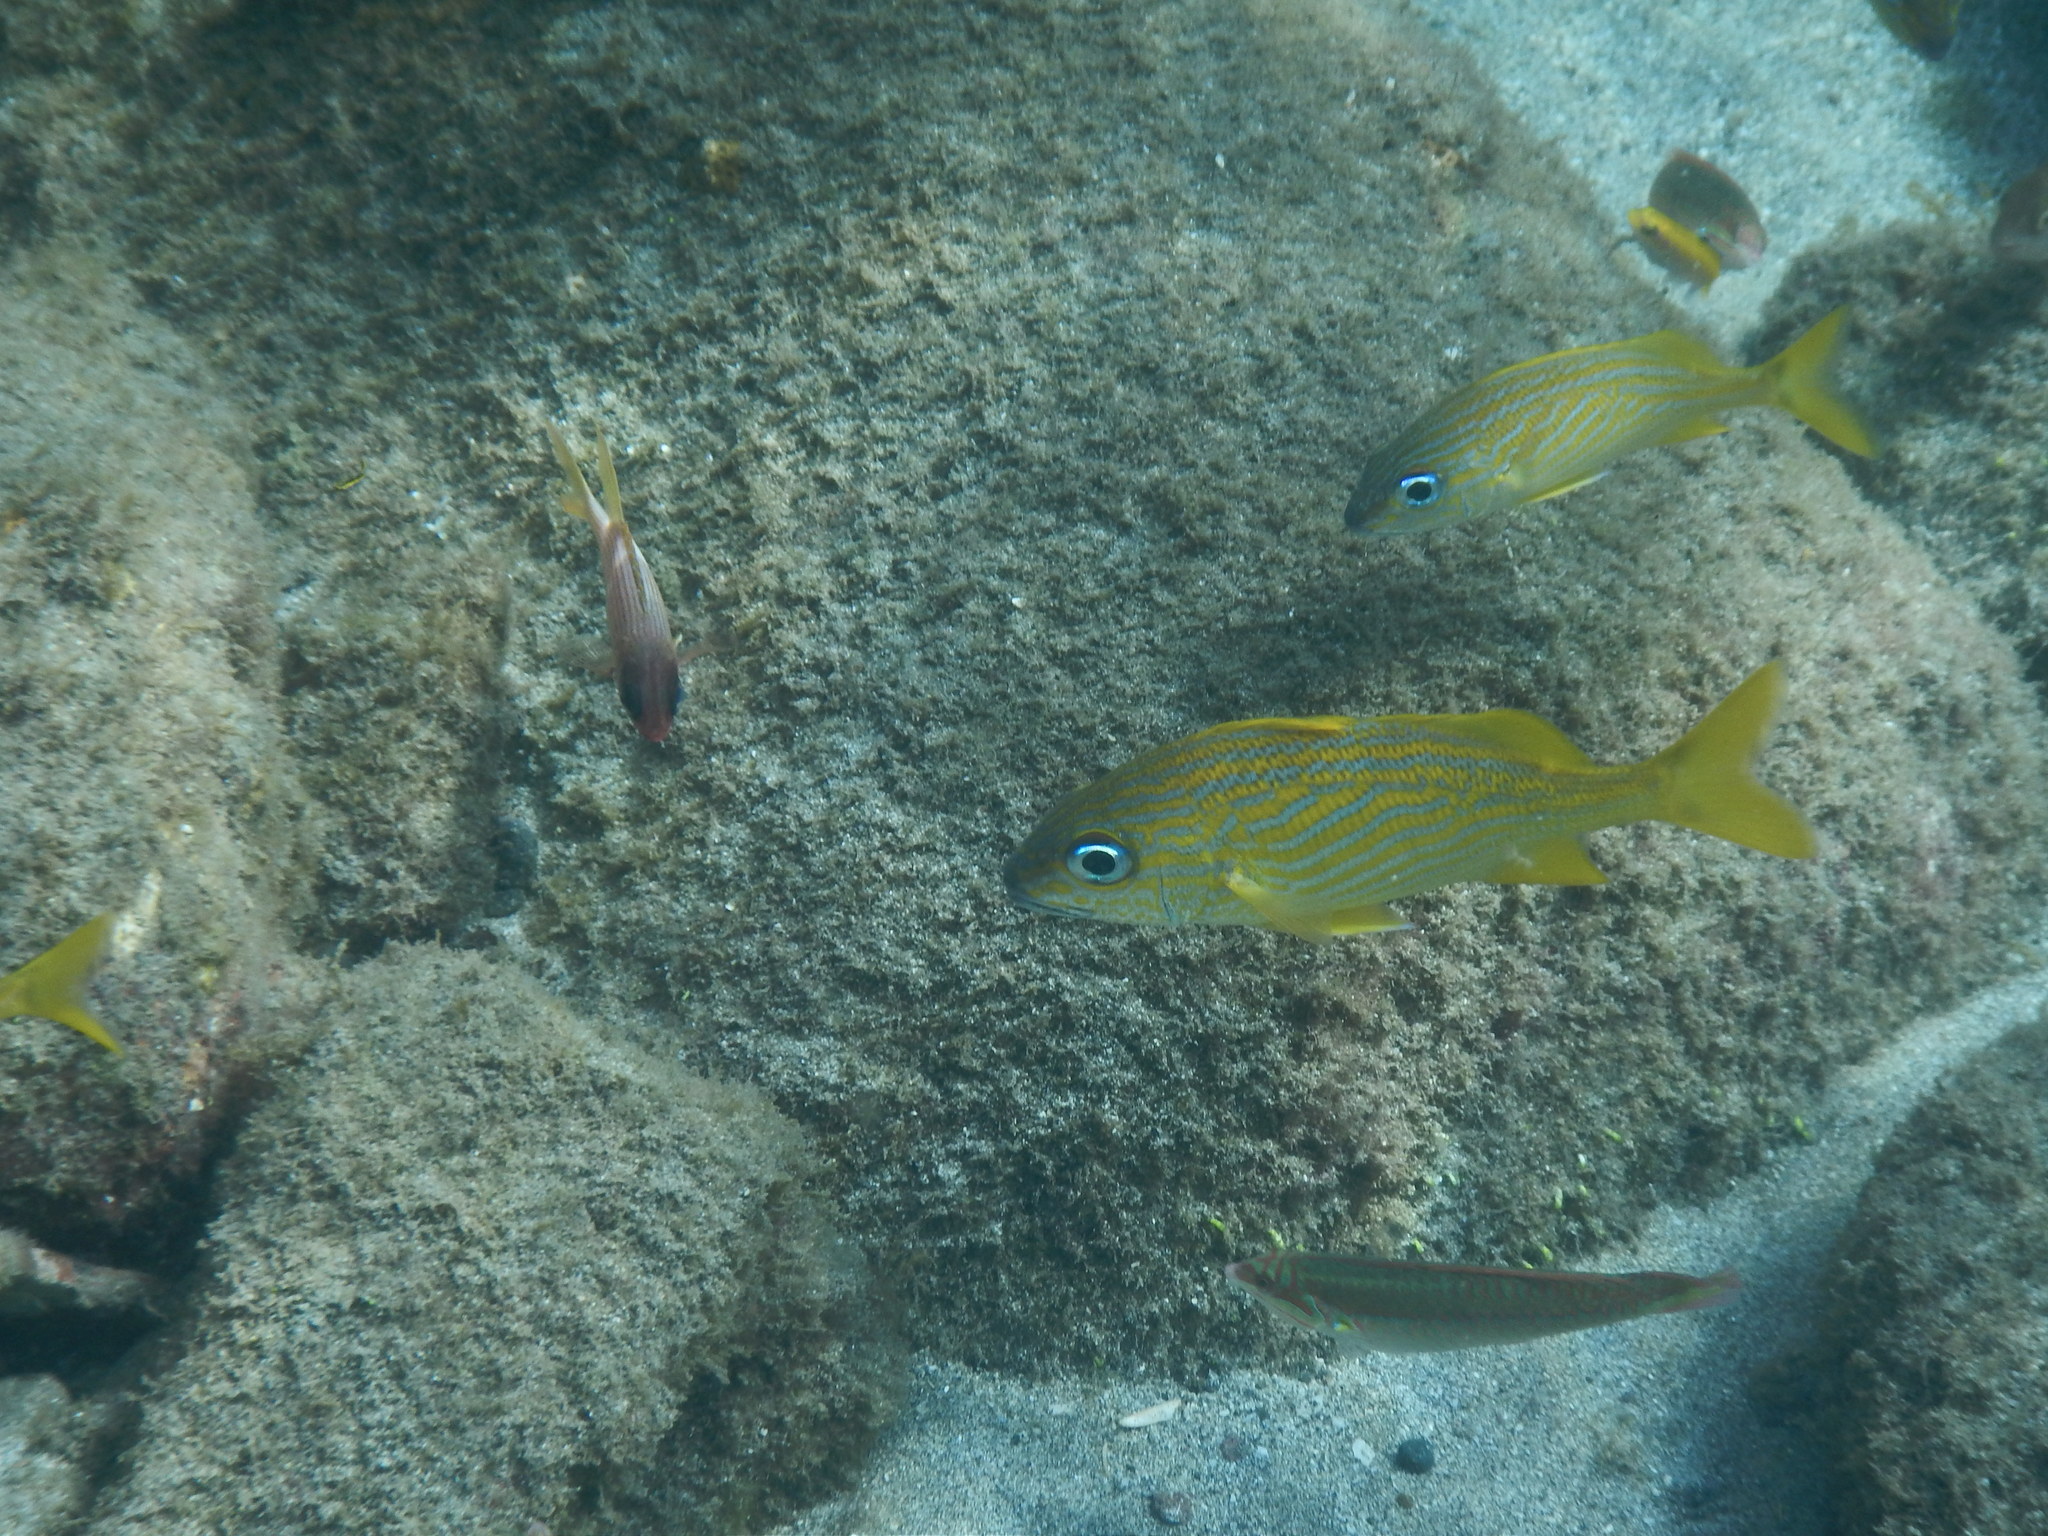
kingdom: Animalia
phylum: Chordata
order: Perciformes
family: Haemulidae
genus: Haemulon
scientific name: Haemulon flavolineatum
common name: French grunt
